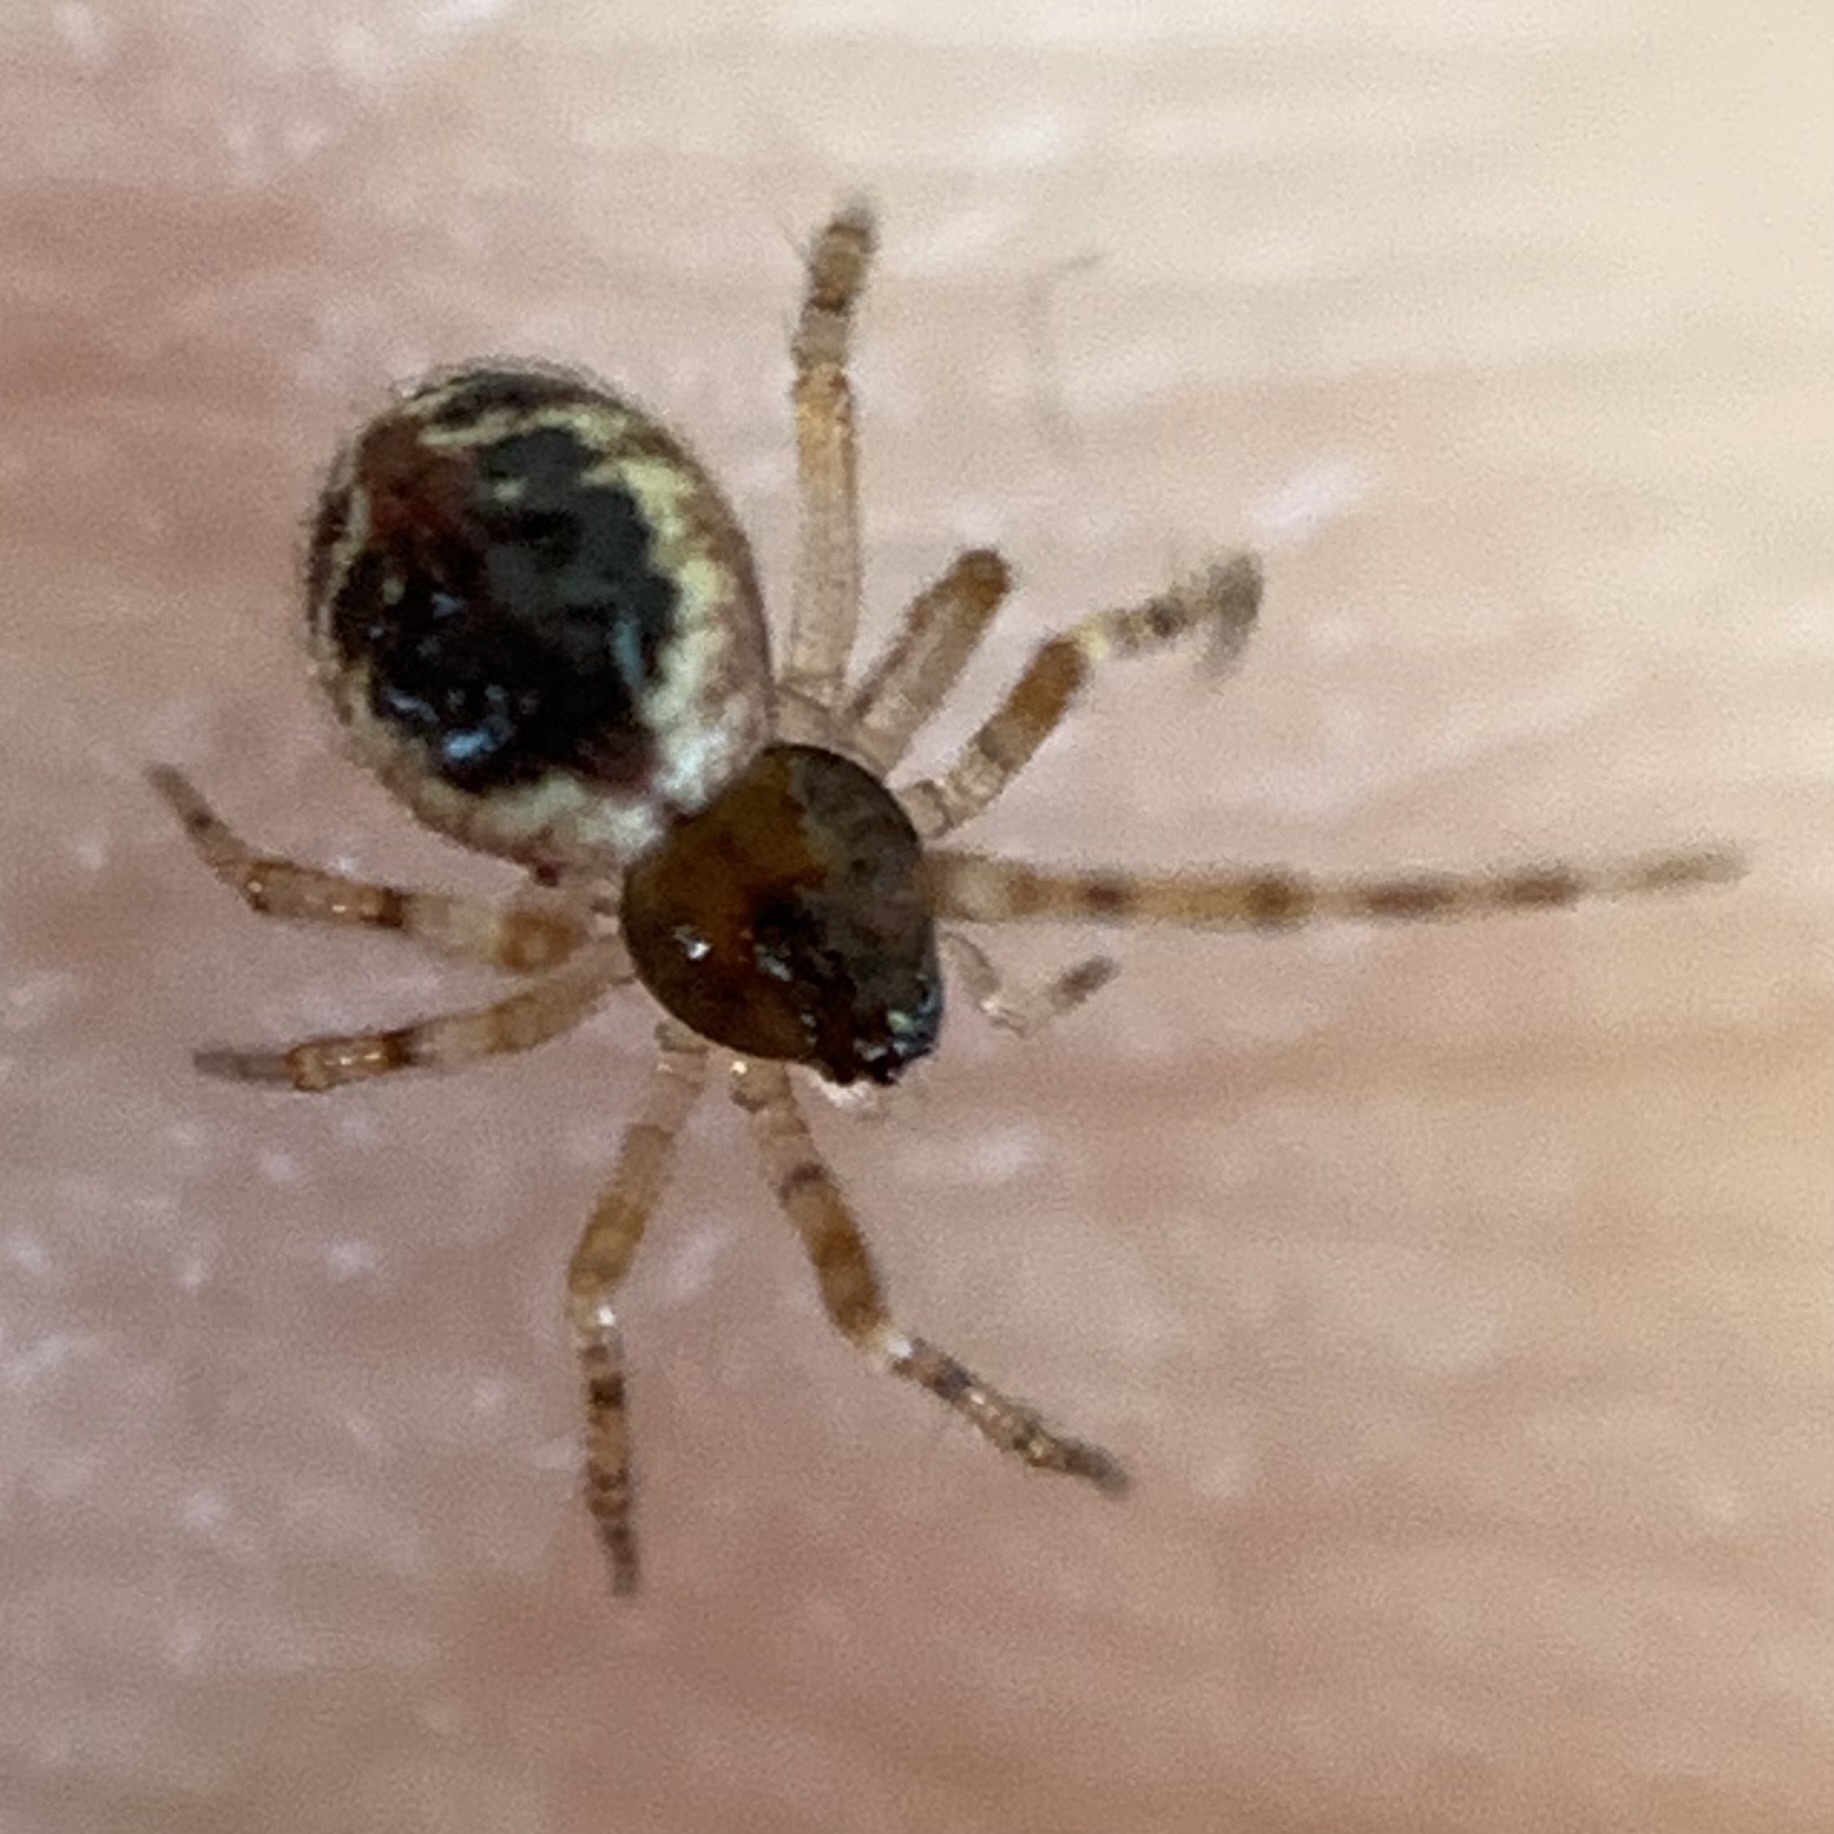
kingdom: Animalia
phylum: Arthropoda
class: Arachnida
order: Araneae
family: Theridiidae
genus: Sardinidion
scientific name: Sardinidion blackwalli
